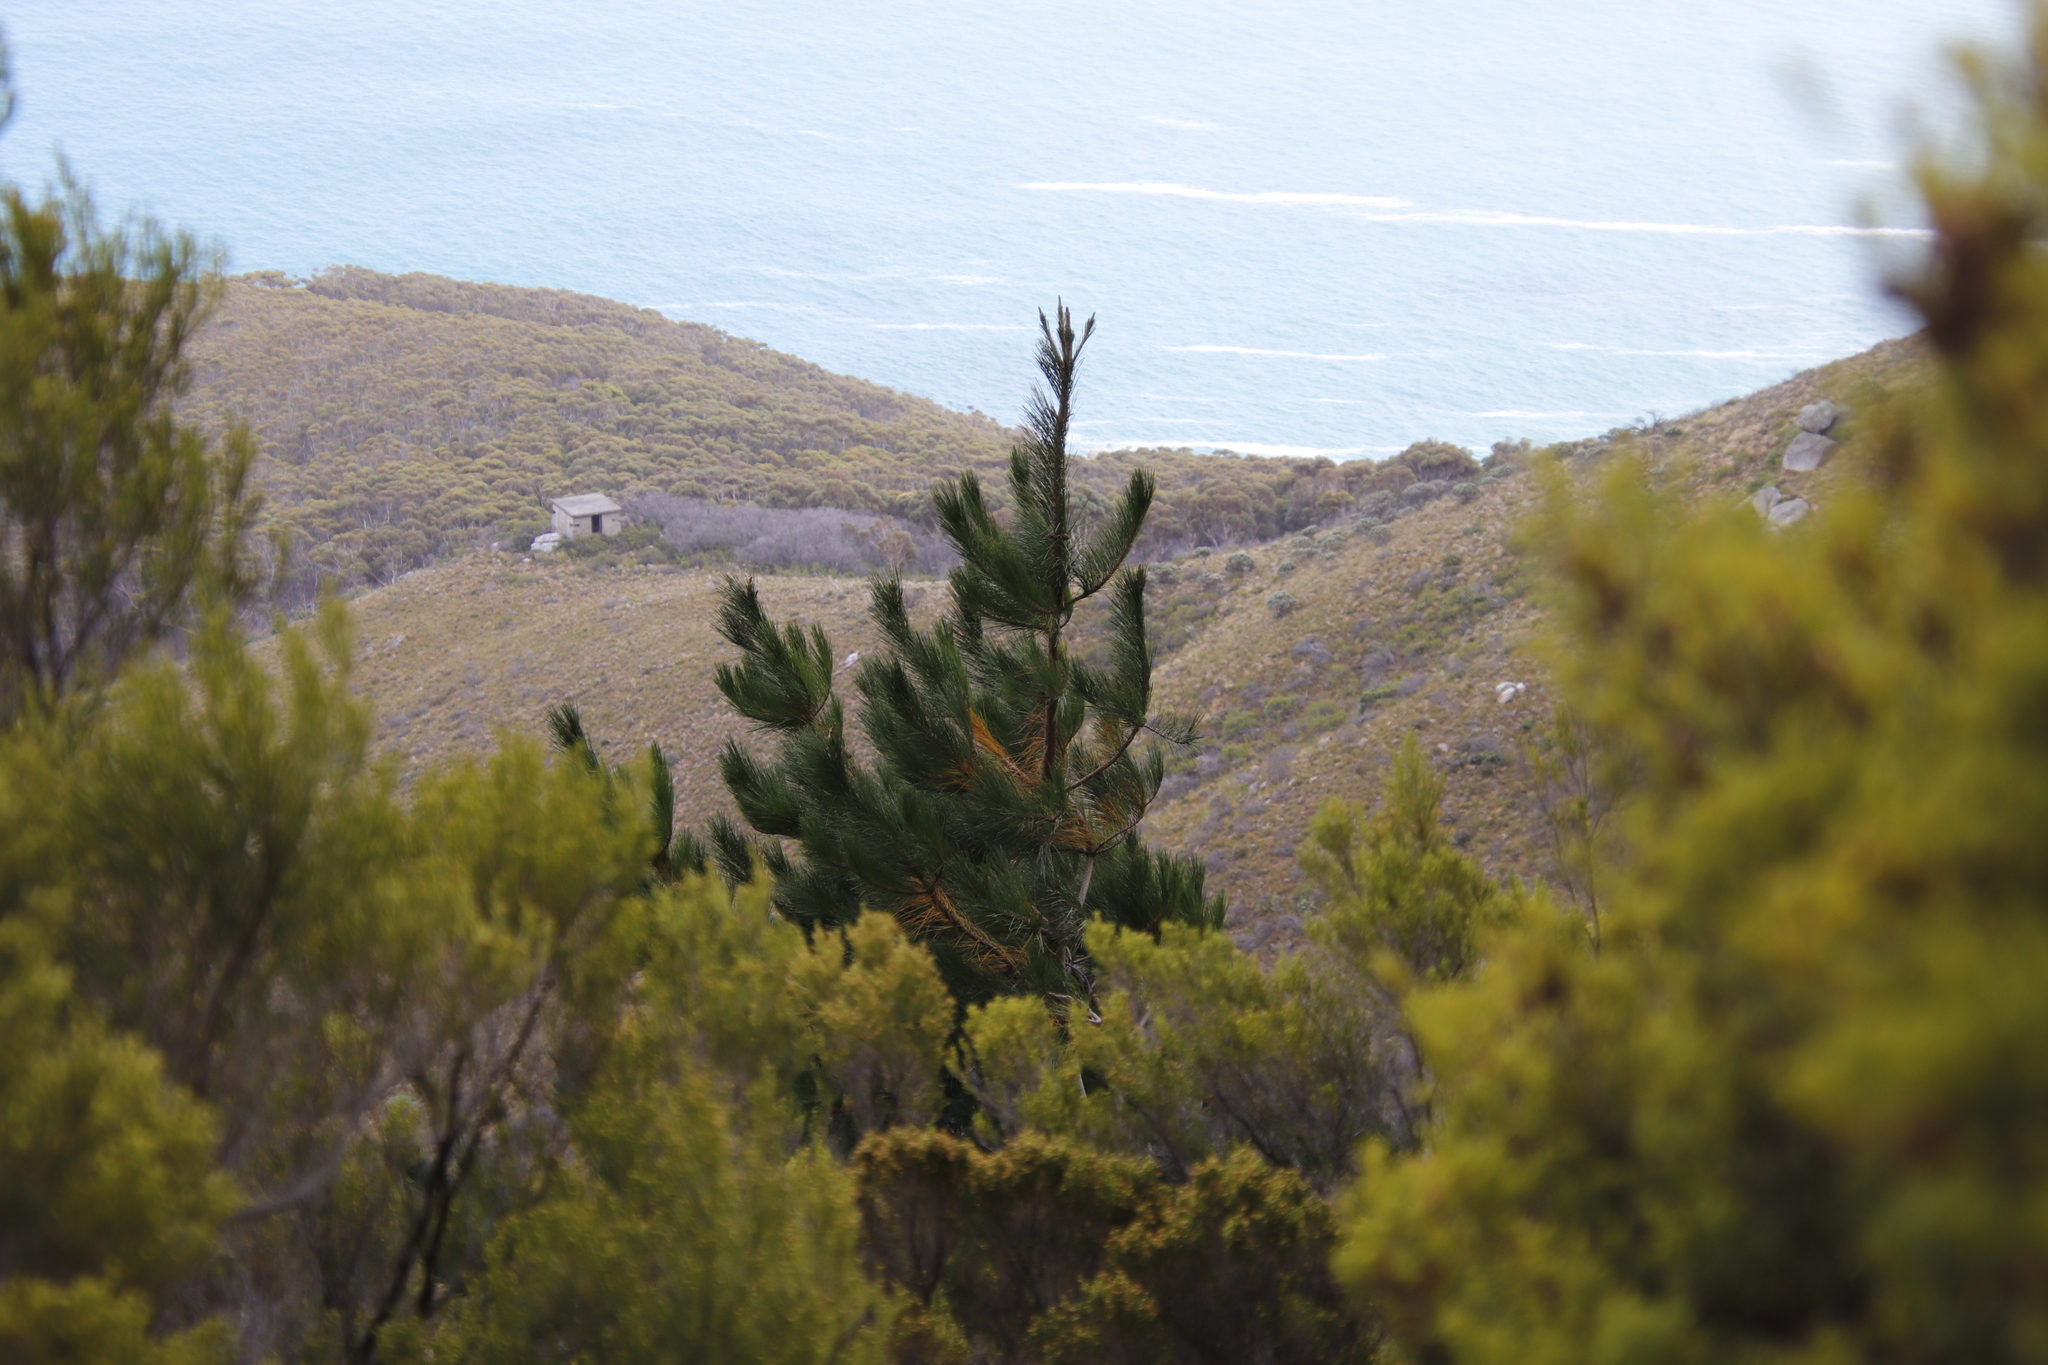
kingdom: Plantae
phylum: Tracheophyta
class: Pinopsida
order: Pinales
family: Pinaceae
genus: Pinus
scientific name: Pinus radiata
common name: Monterey pine
